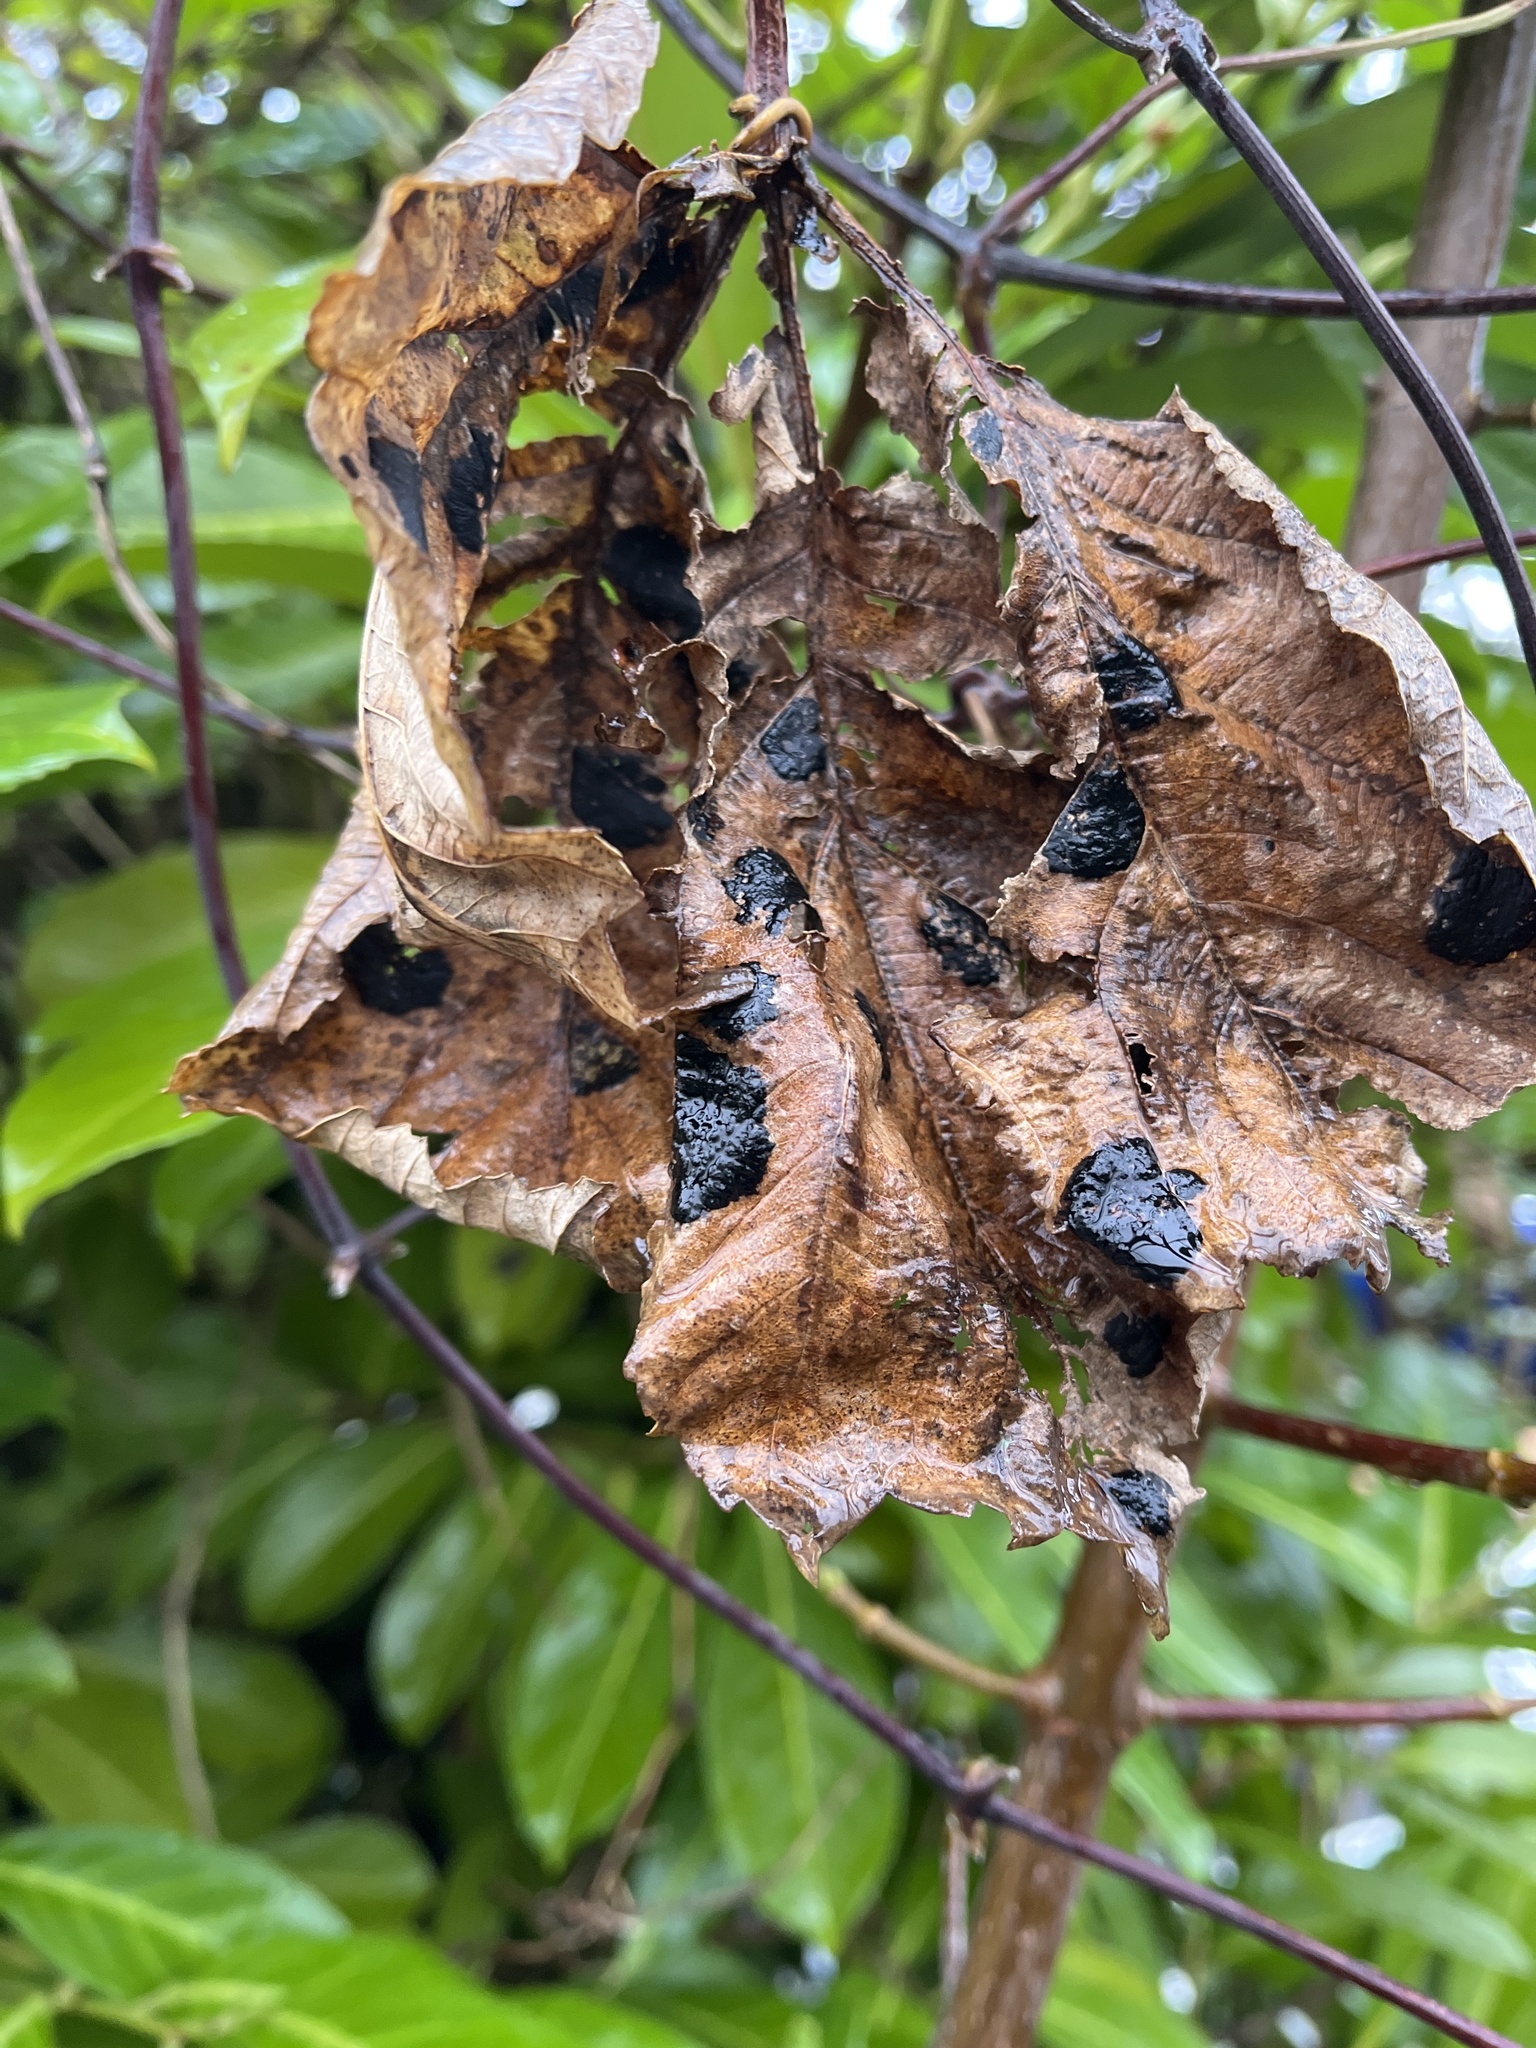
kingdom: Fungi
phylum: Ascomycota
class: Leotiomycetes
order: Rhytismatales
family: Rhytismataceae
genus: Rhytisma
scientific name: Rhytisma acerinum
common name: European tar spot
